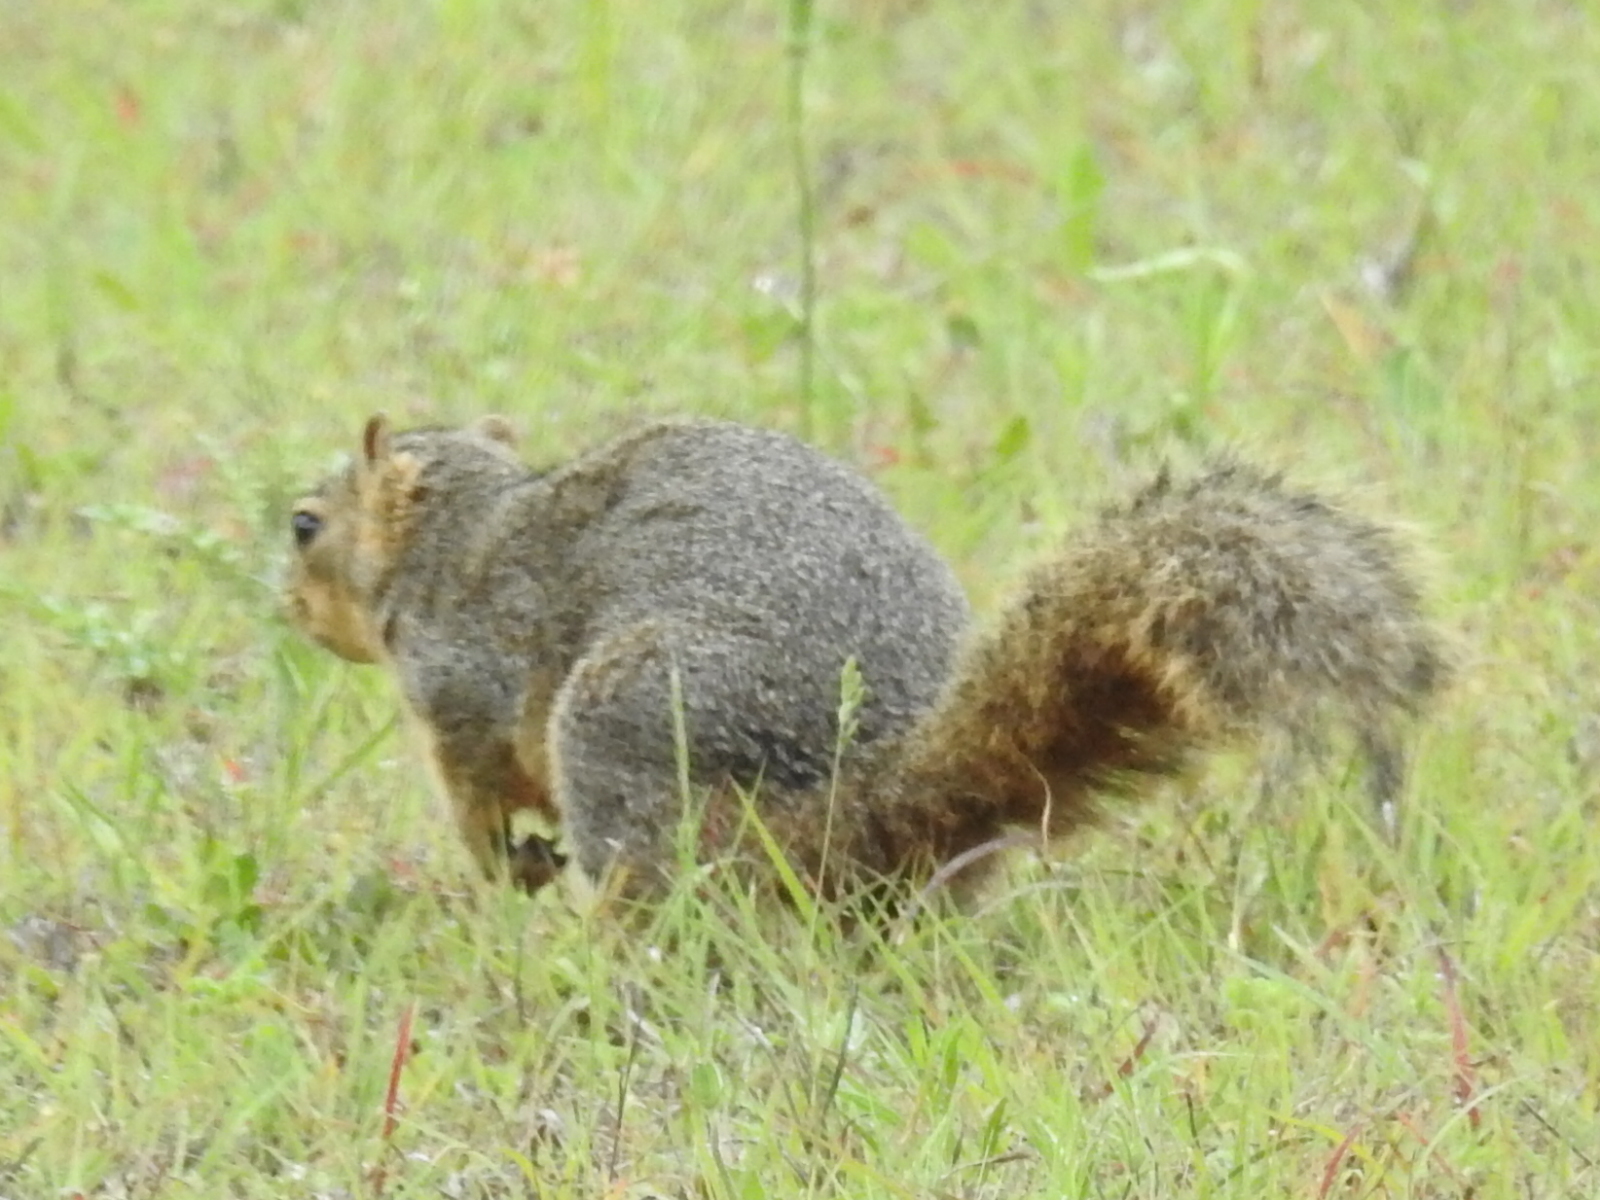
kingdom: Animalia
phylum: Chordata
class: Mammalia
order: Rodentia
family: Sciuridae
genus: Sciurus
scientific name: Sciurus niger
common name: Fox squirrel
